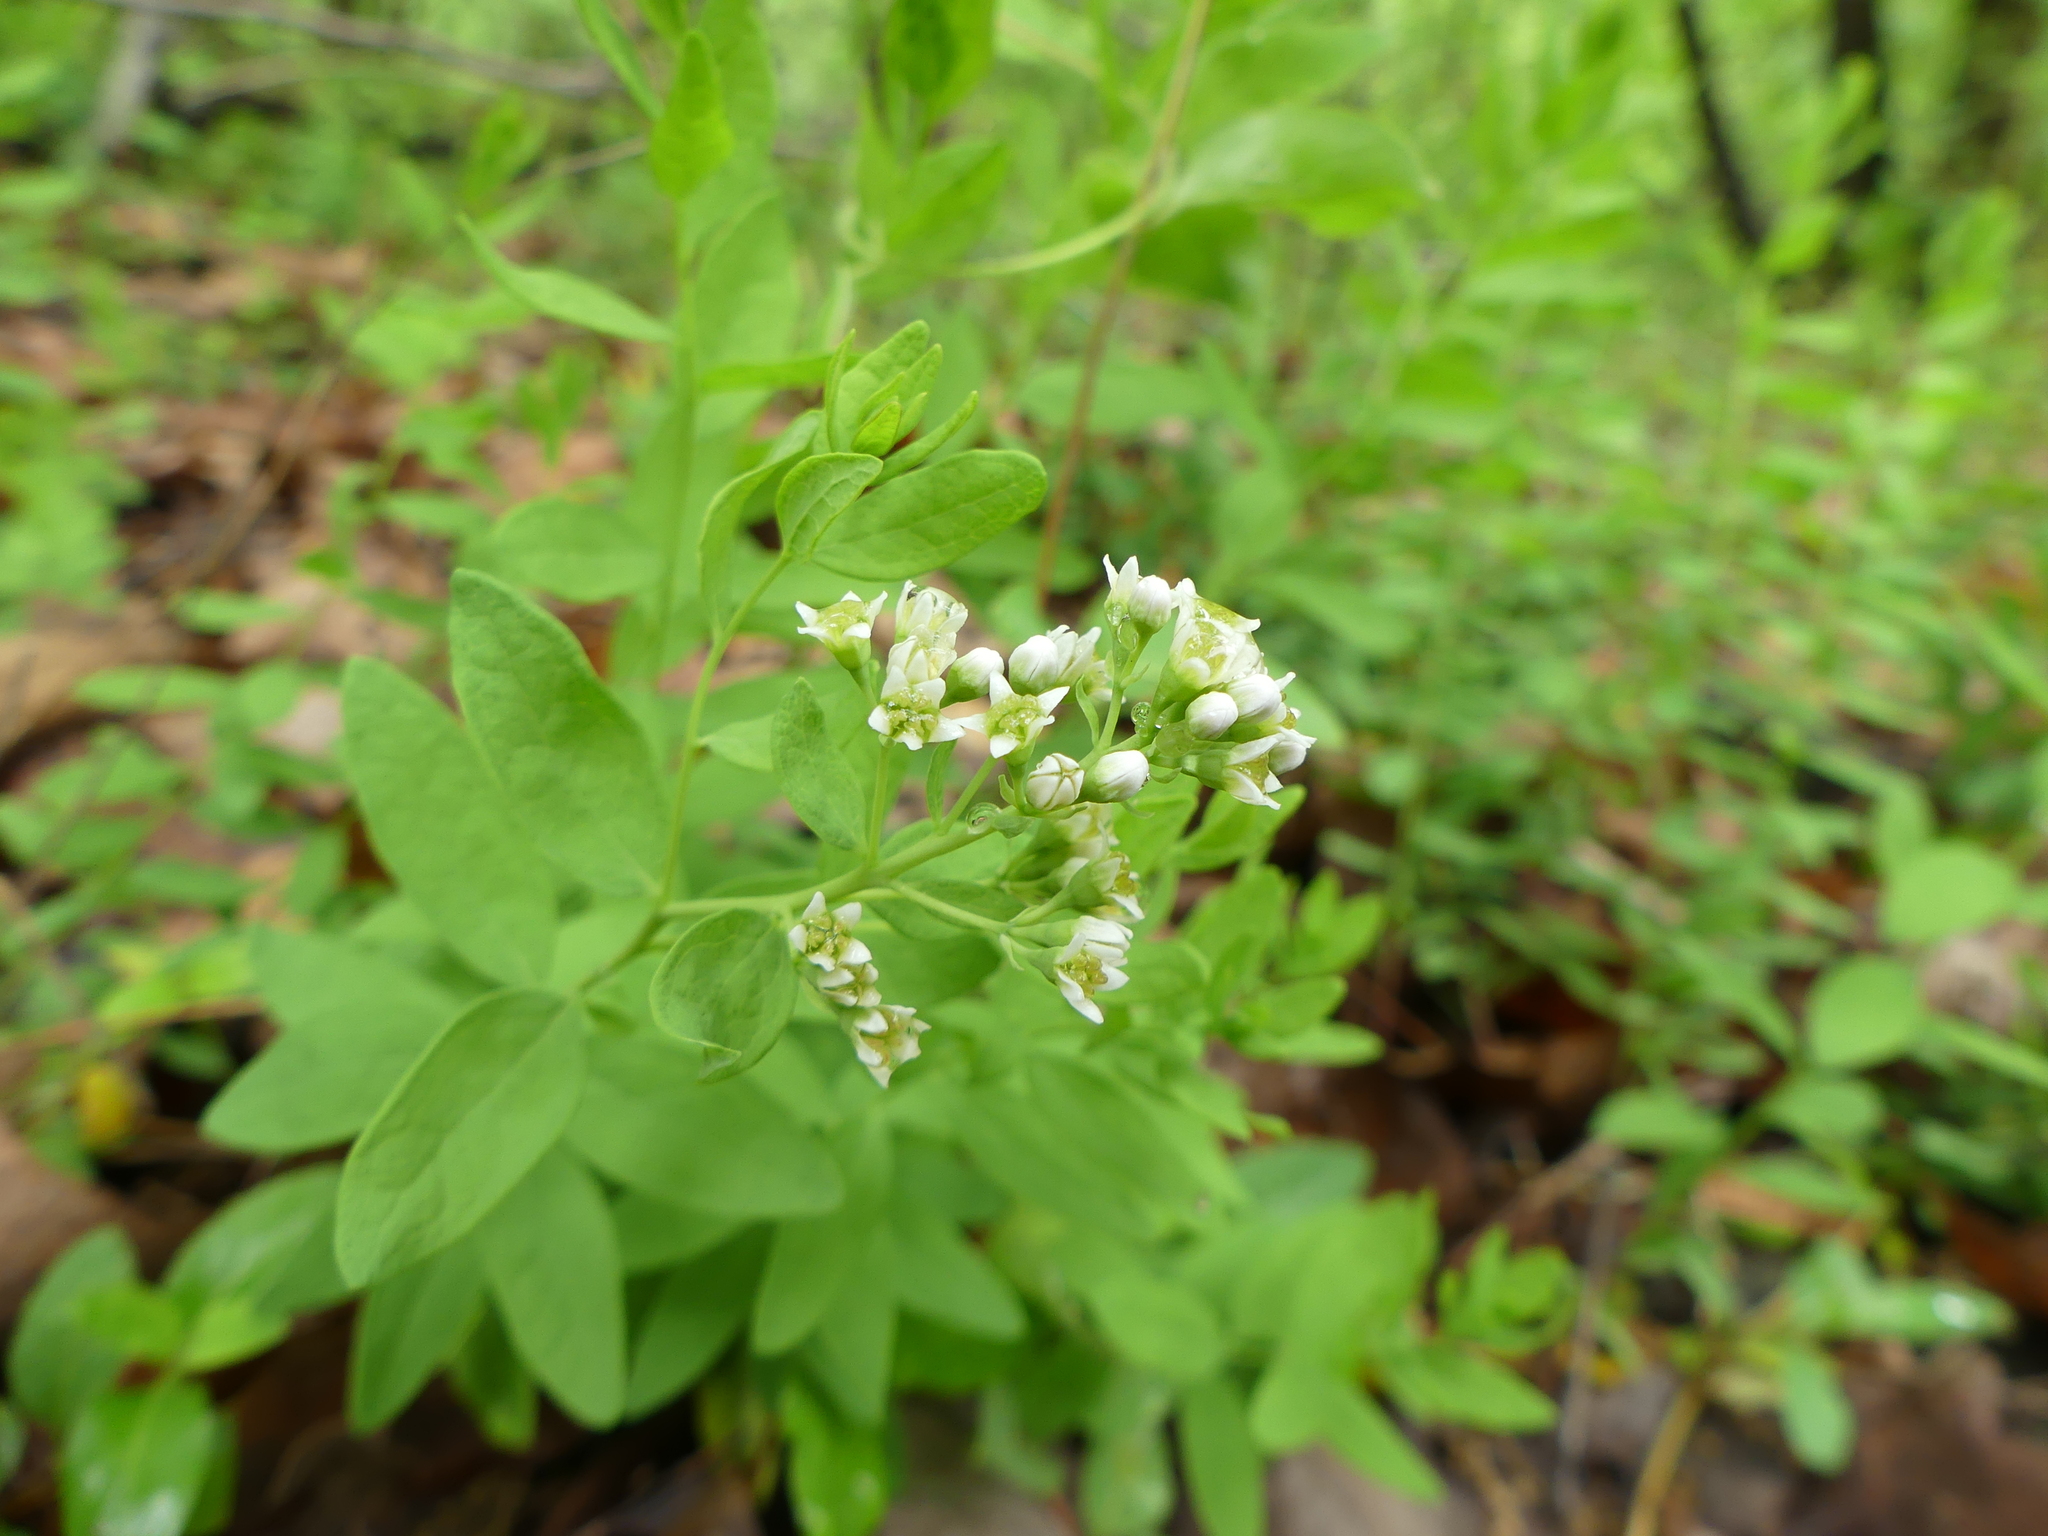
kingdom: Plantae
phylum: Tracheophyta
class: Magnoliopsida
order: Santalales
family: Comandraceae
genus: Comandra
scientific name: Comandra umbellata
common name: Bastard toadflax
